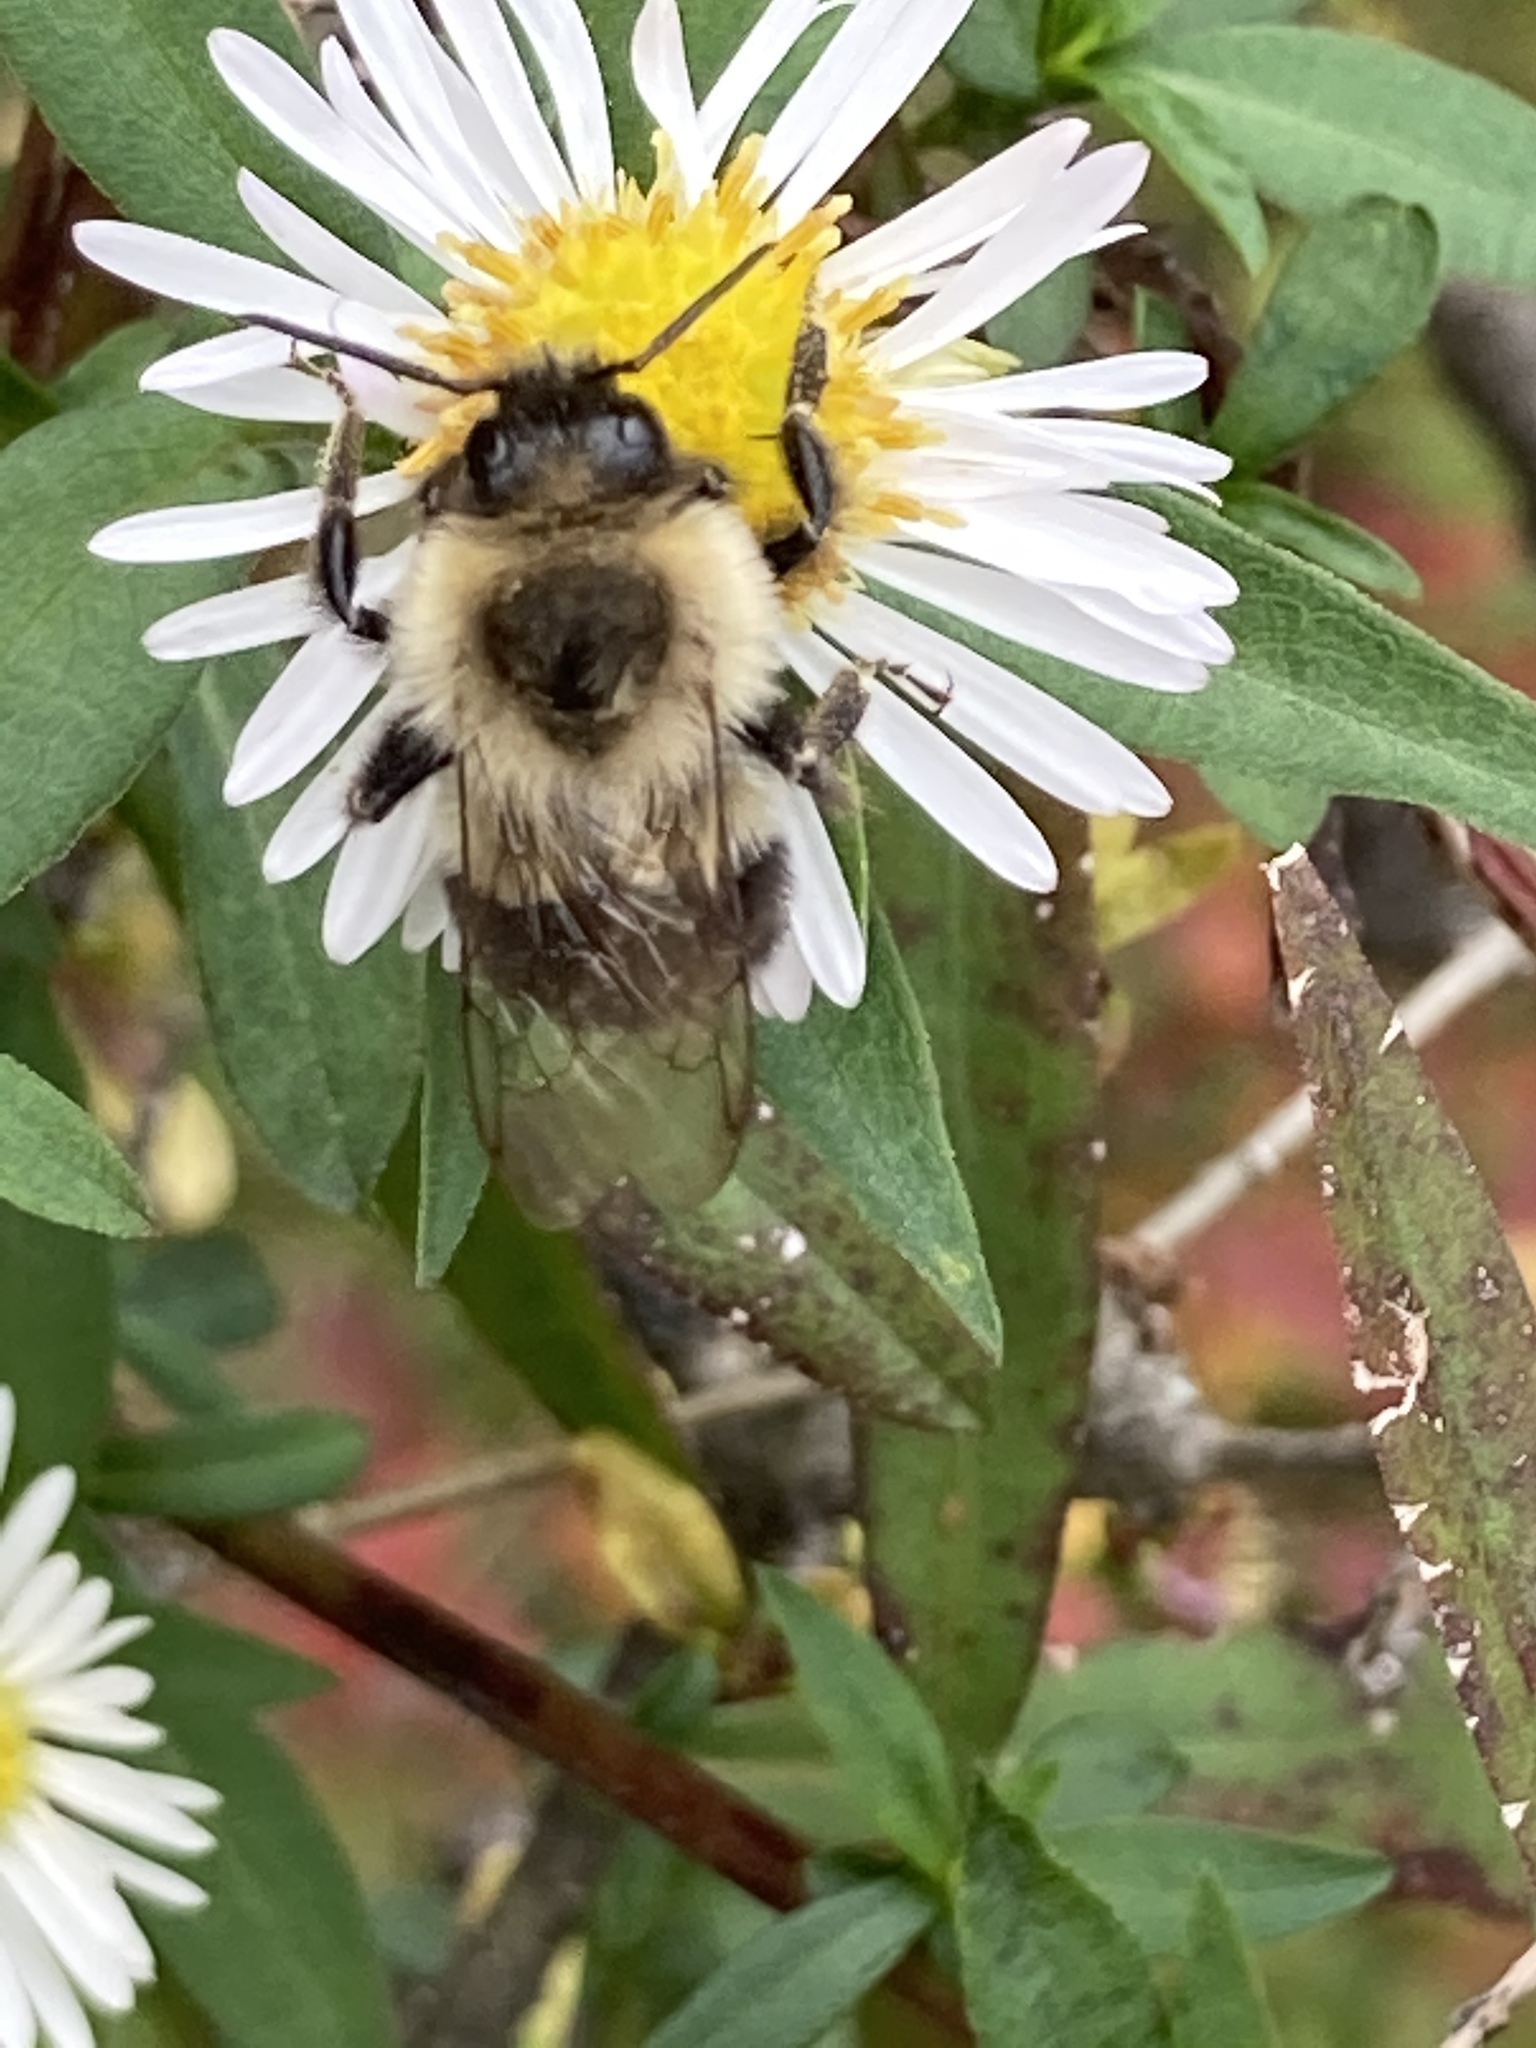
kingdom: Animalia
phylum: Arthropoda
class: Insecta
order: Hymenoptera
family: Apidae
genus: Bombus
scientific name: Bombus impatiens
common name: Common eastern bumble bee
